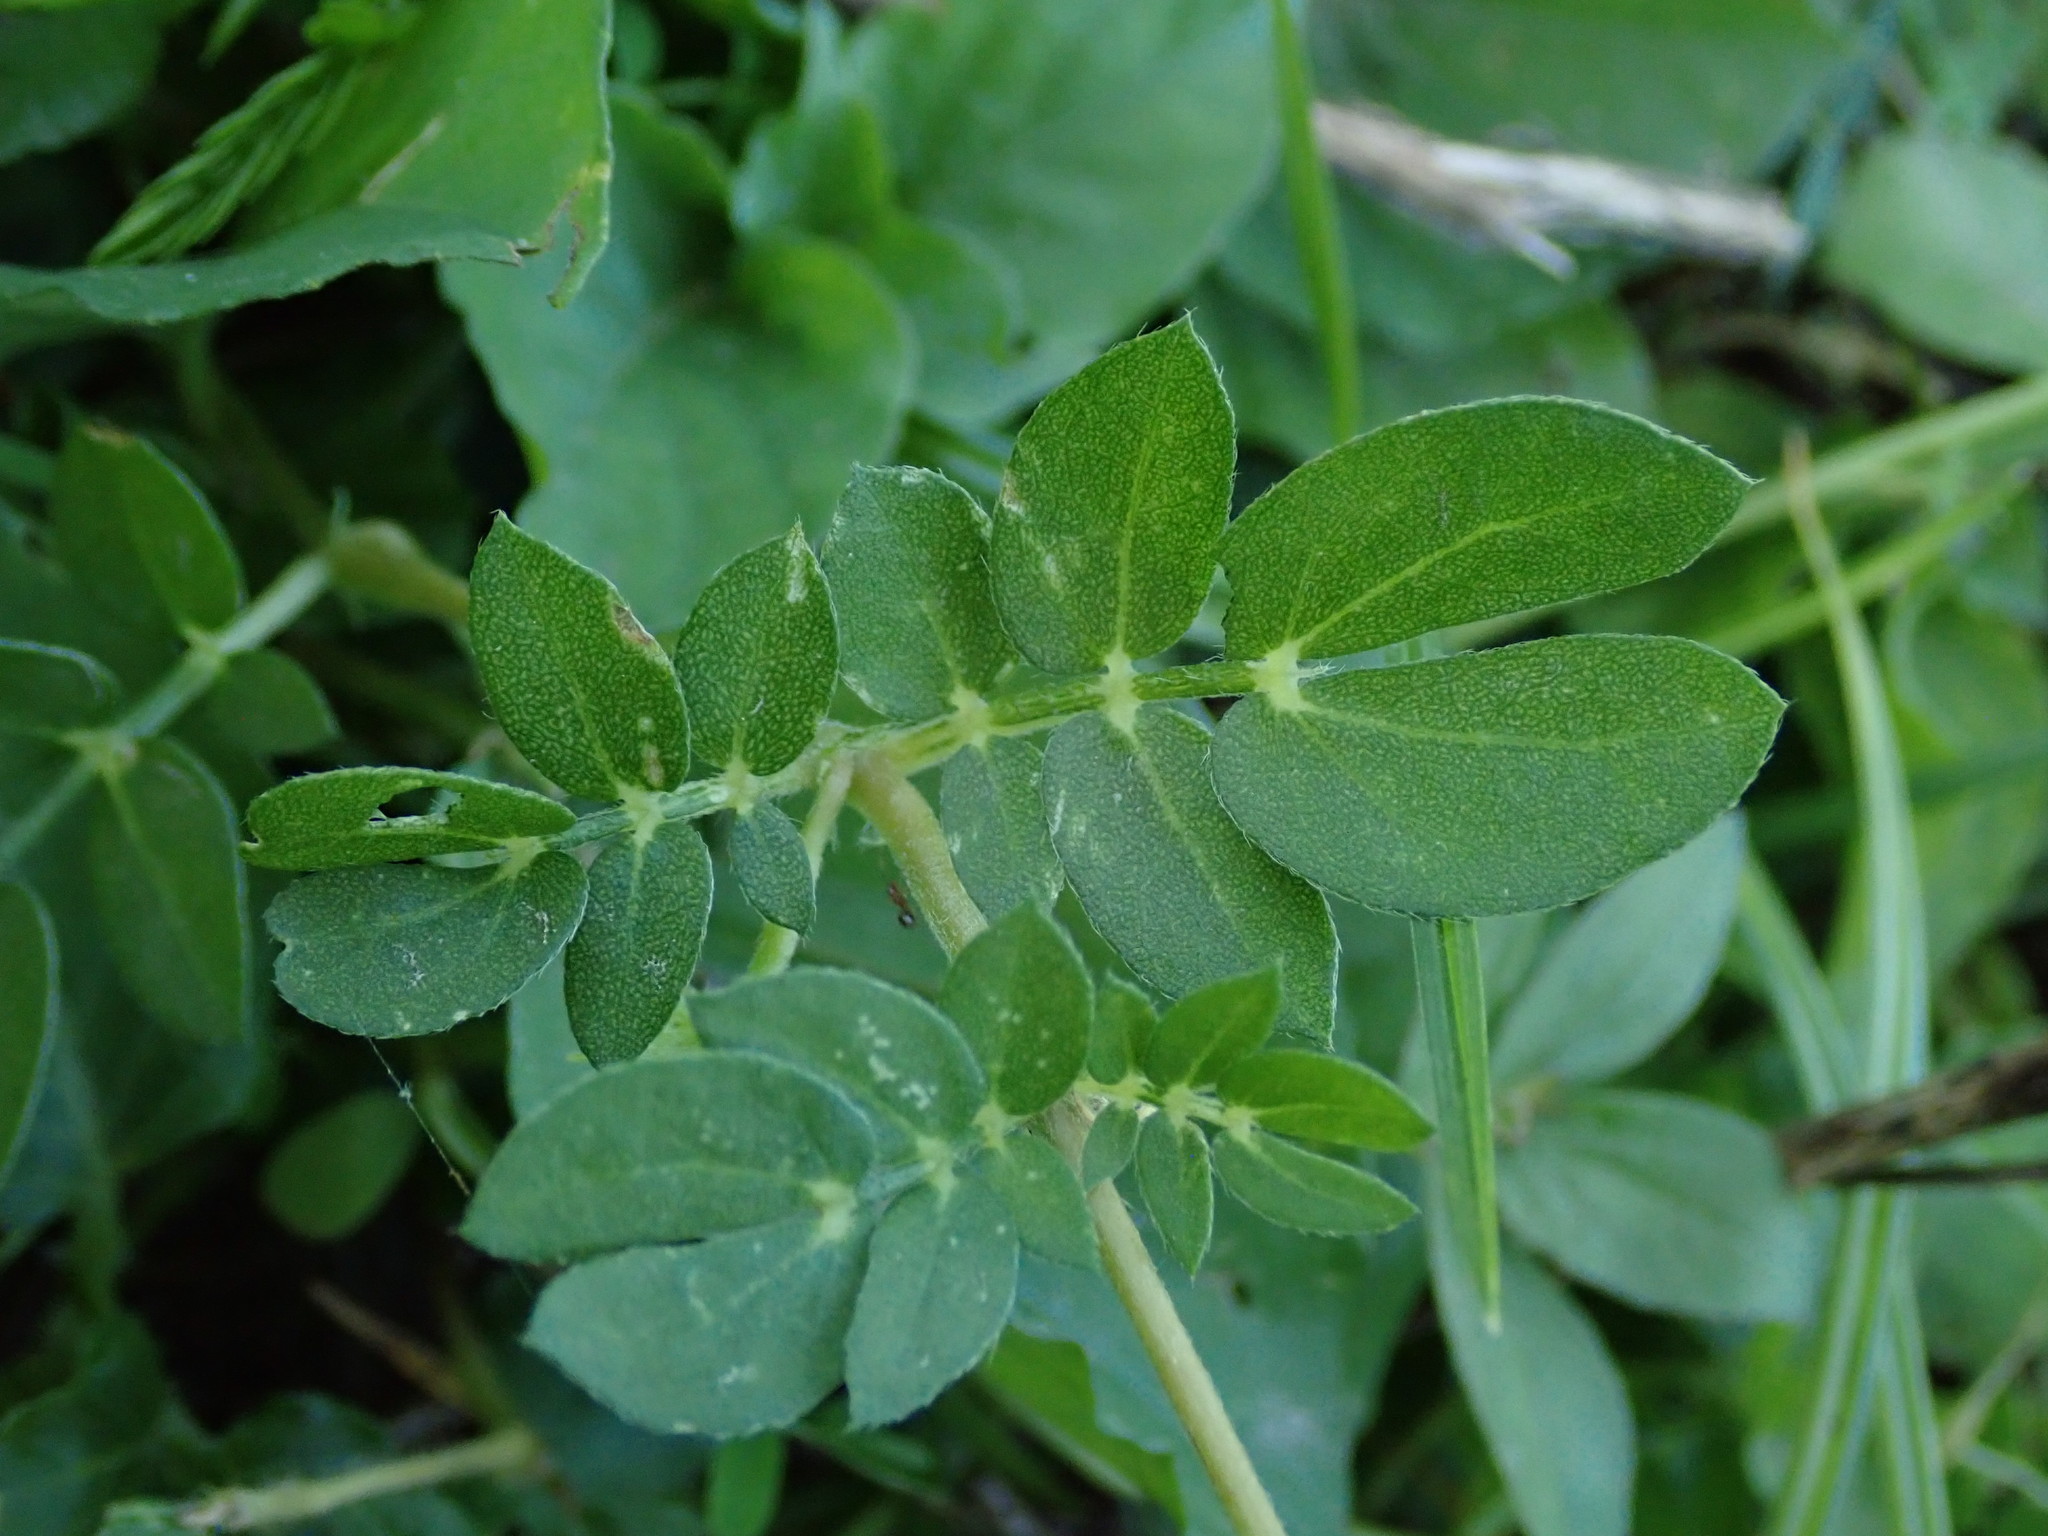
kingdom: Plantae
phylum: Tracheophyta
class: Magnoliopsida
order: Zygophyllales
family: Zygophyllaceae
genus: Kallstroemia
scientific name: Kallstroemia maxima
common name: Big caltropa
